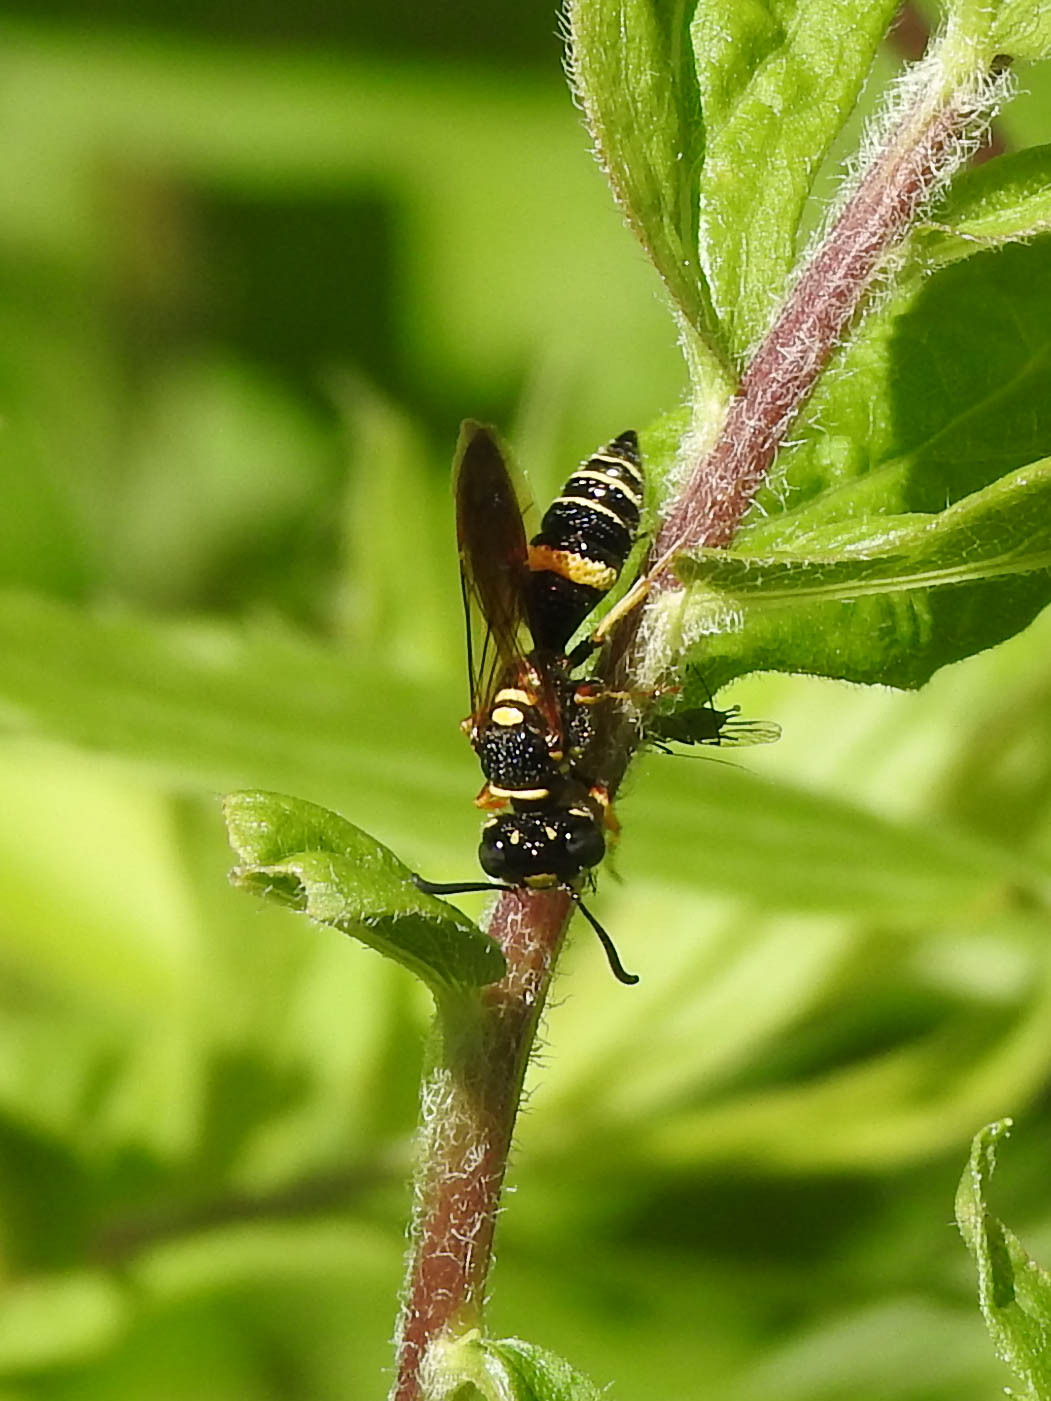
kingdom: Animalia
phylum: Arthropoda
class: Insecta
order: Hymenoptera
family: Crabronidae
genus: Philanthus
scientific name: Philanthus gibbosus
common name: Humped beewolf
